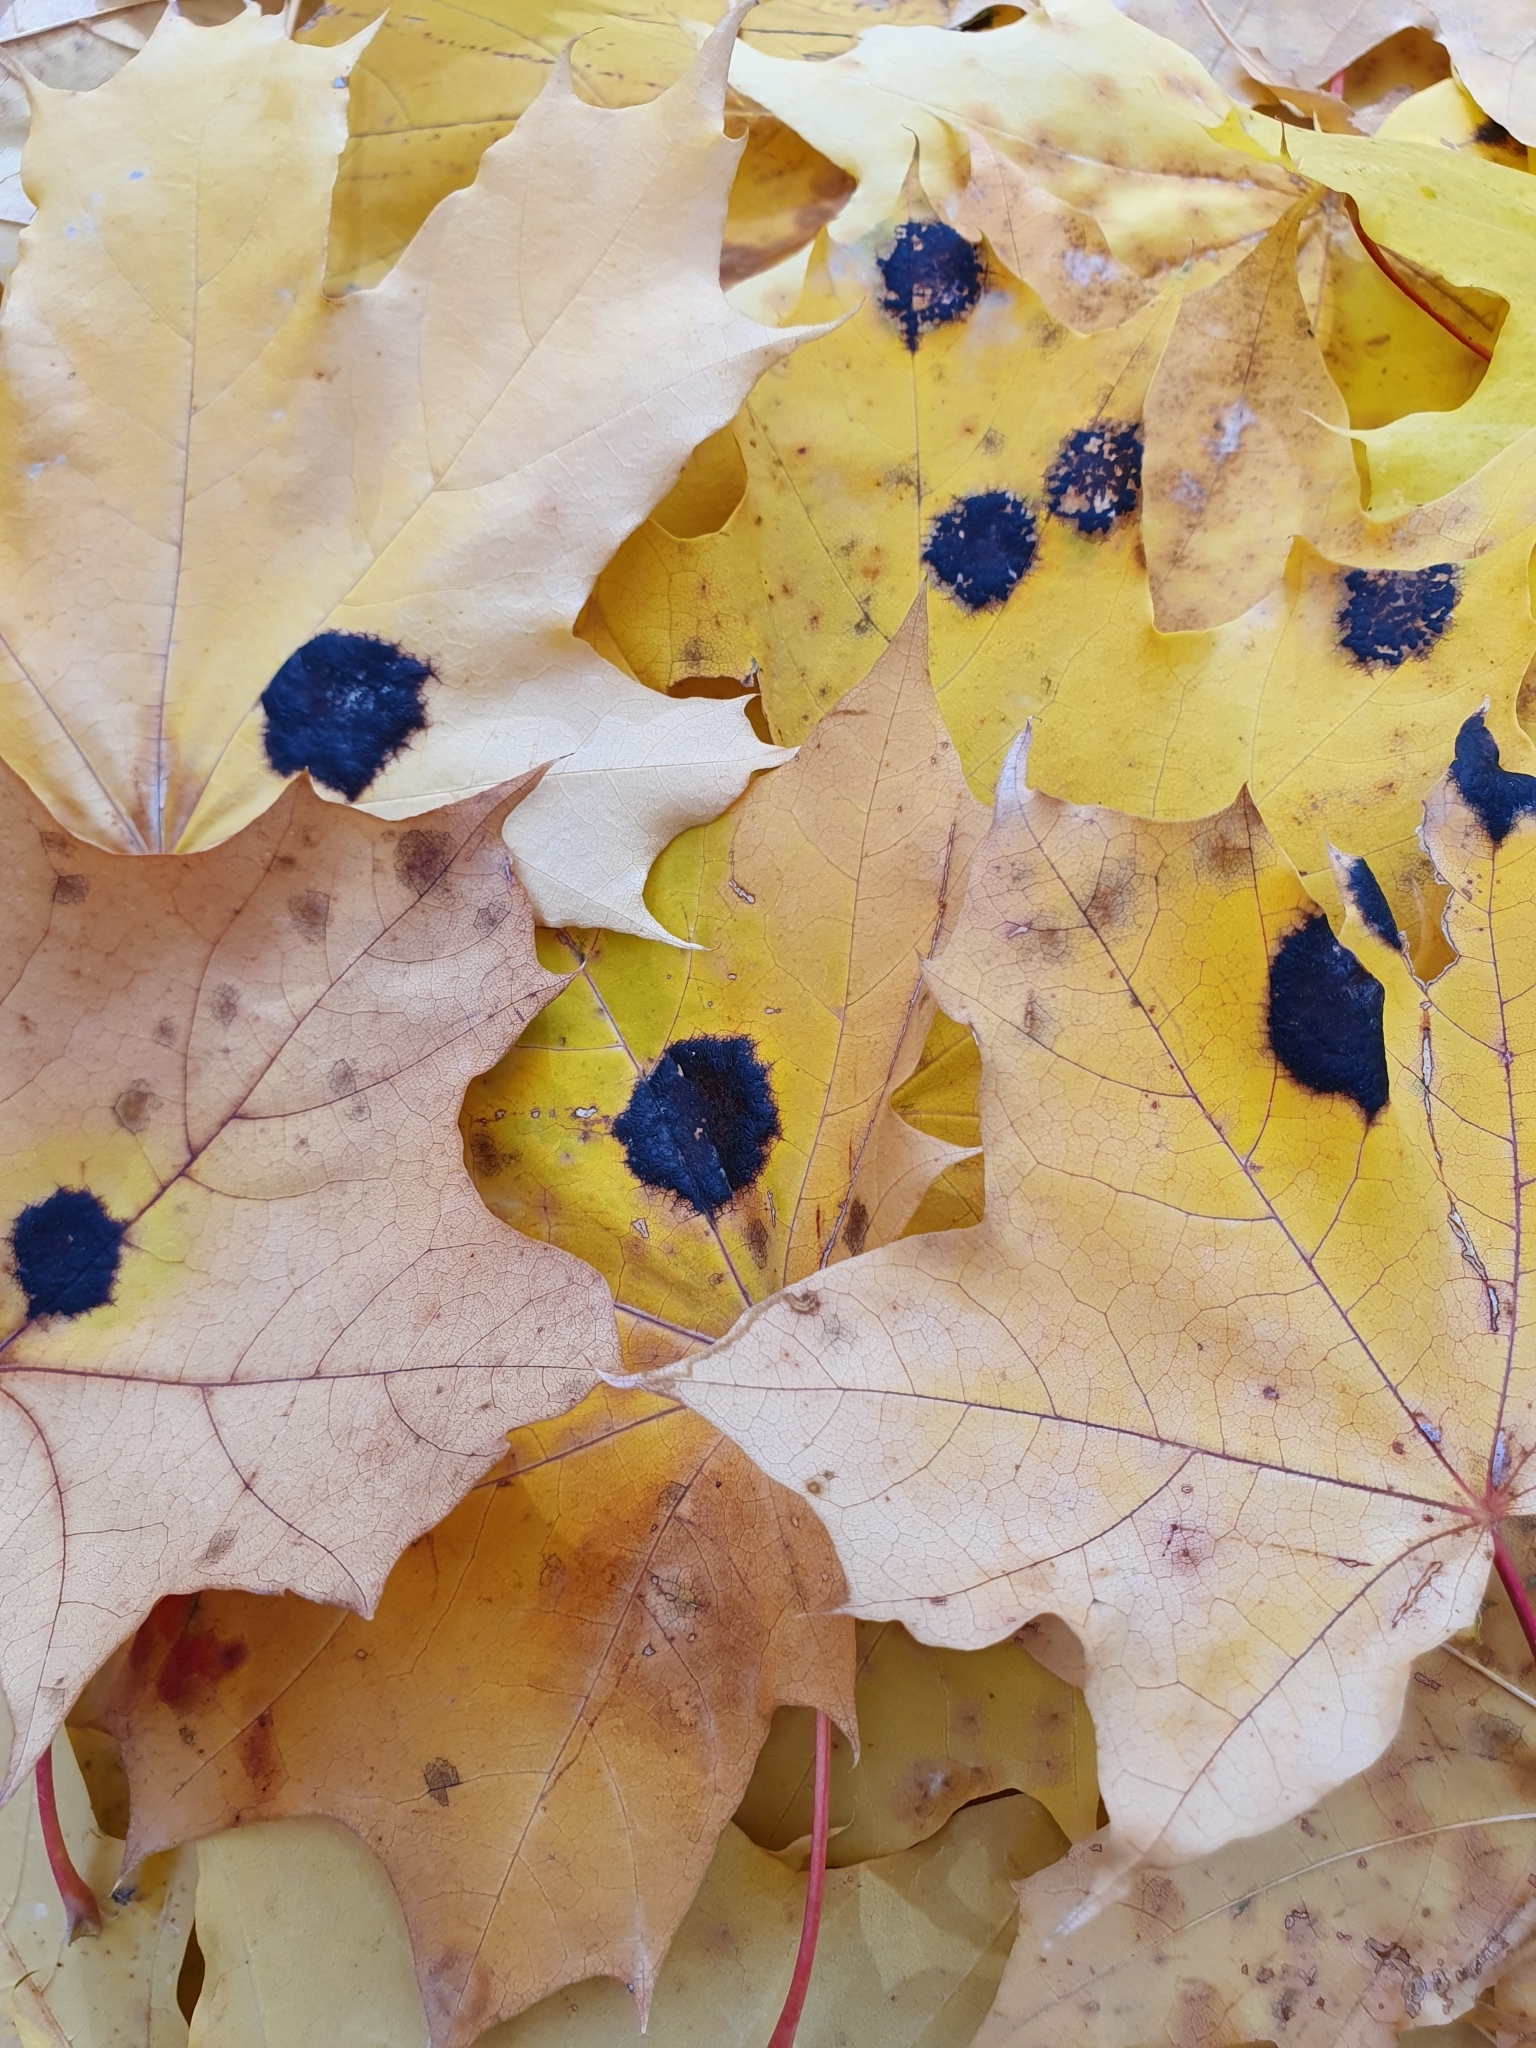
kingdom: Fungi
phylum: Ascomycota
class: Leotiomycetes
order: Rhytismatales
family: Rhytismataceae
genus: Rhytisma
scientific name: Rhytisma acerinum
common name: European tar spot
